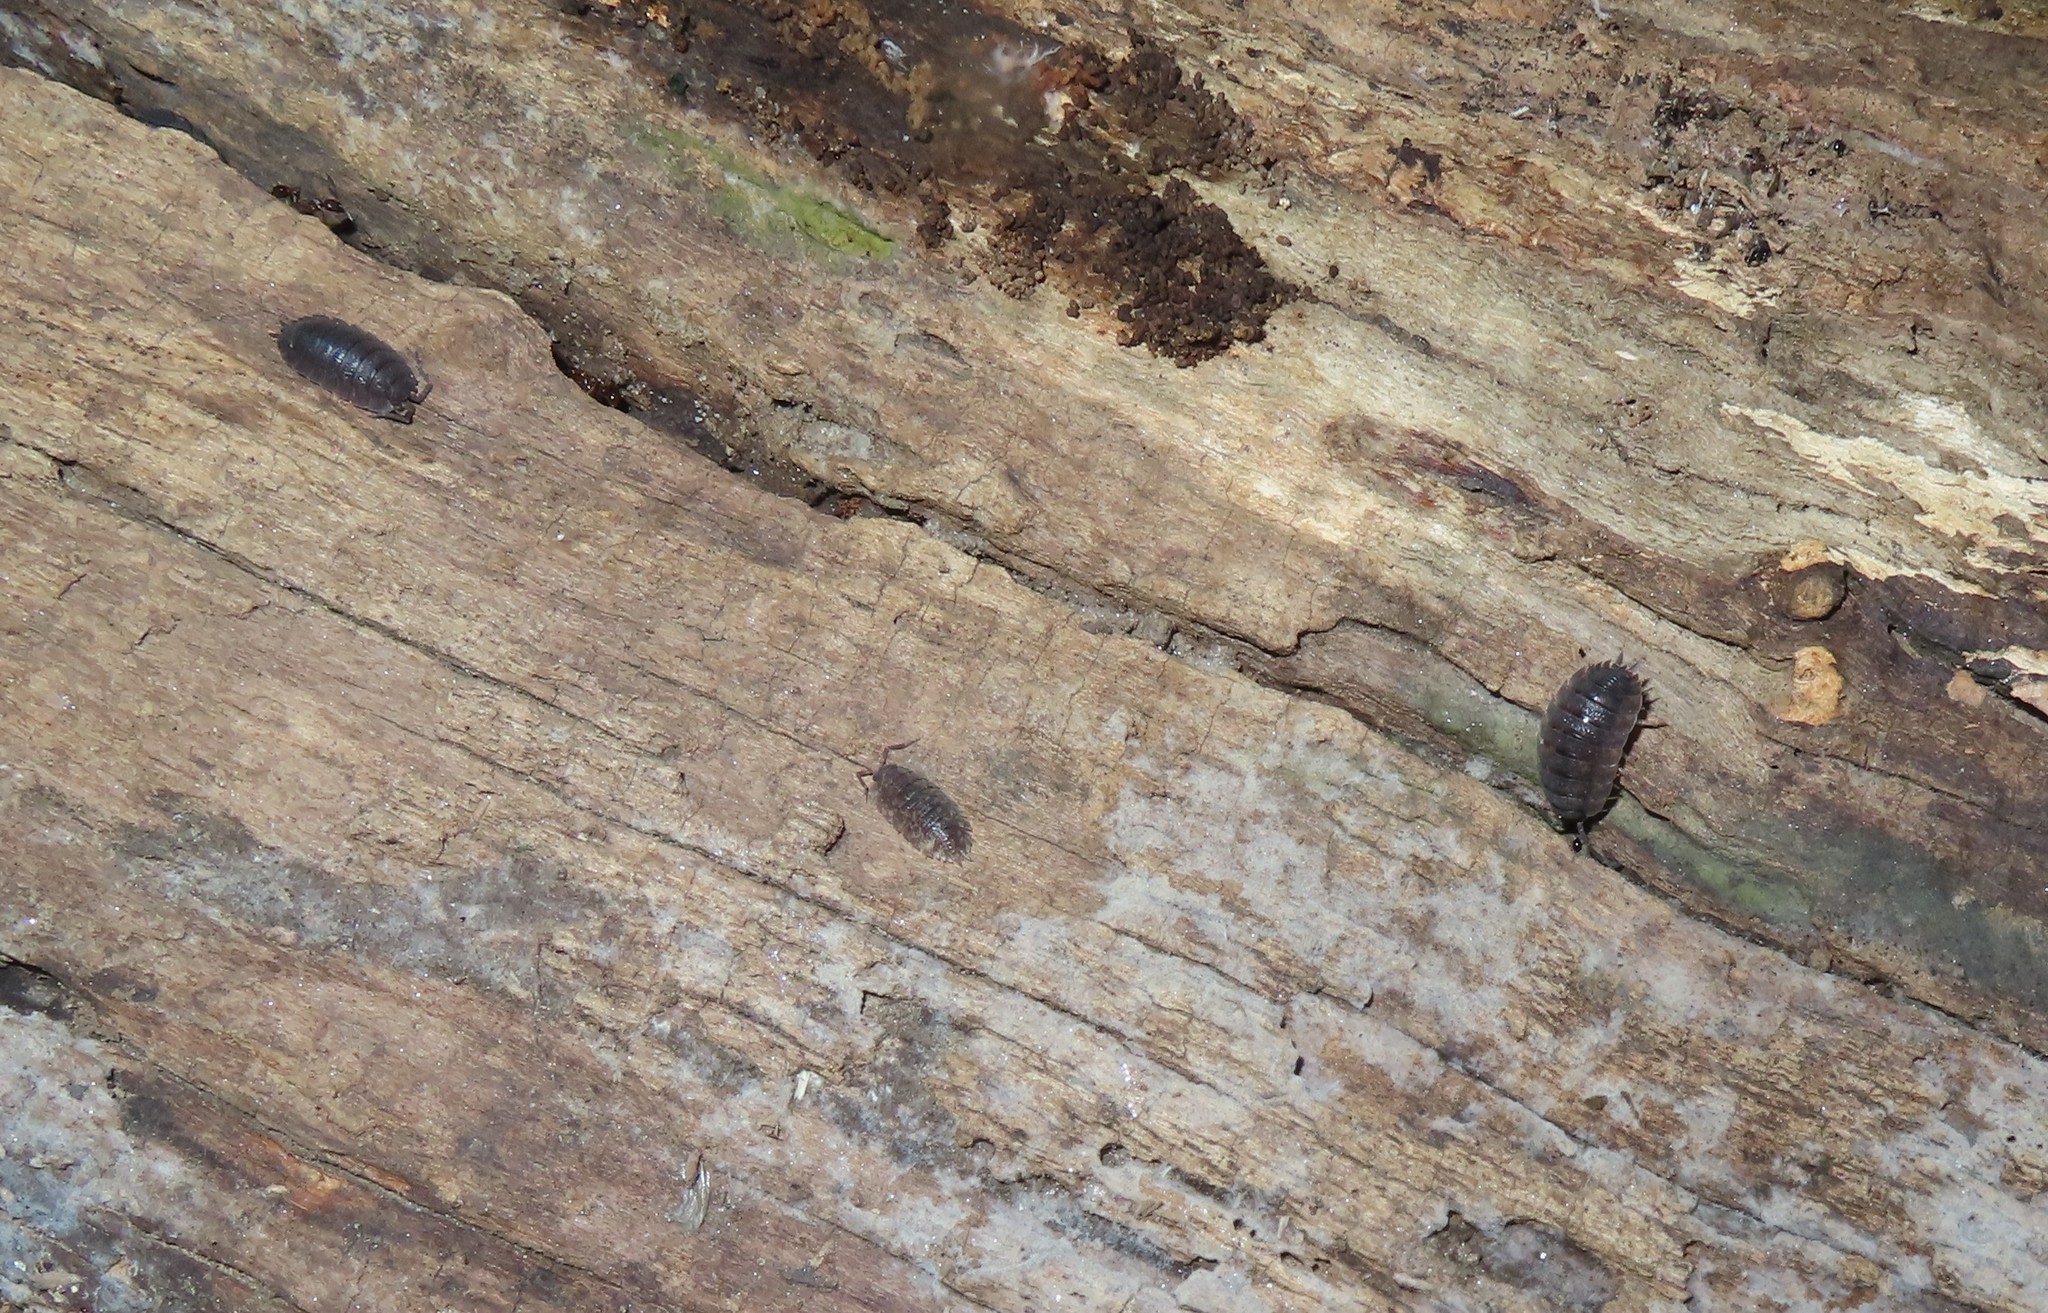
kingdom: Animalia
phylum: Arthropoda
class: Malacostraca
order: Isopoda
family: Porcellionidae
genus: Porcellio
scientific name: Porcellio scaber
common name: Common rough woodlouse
